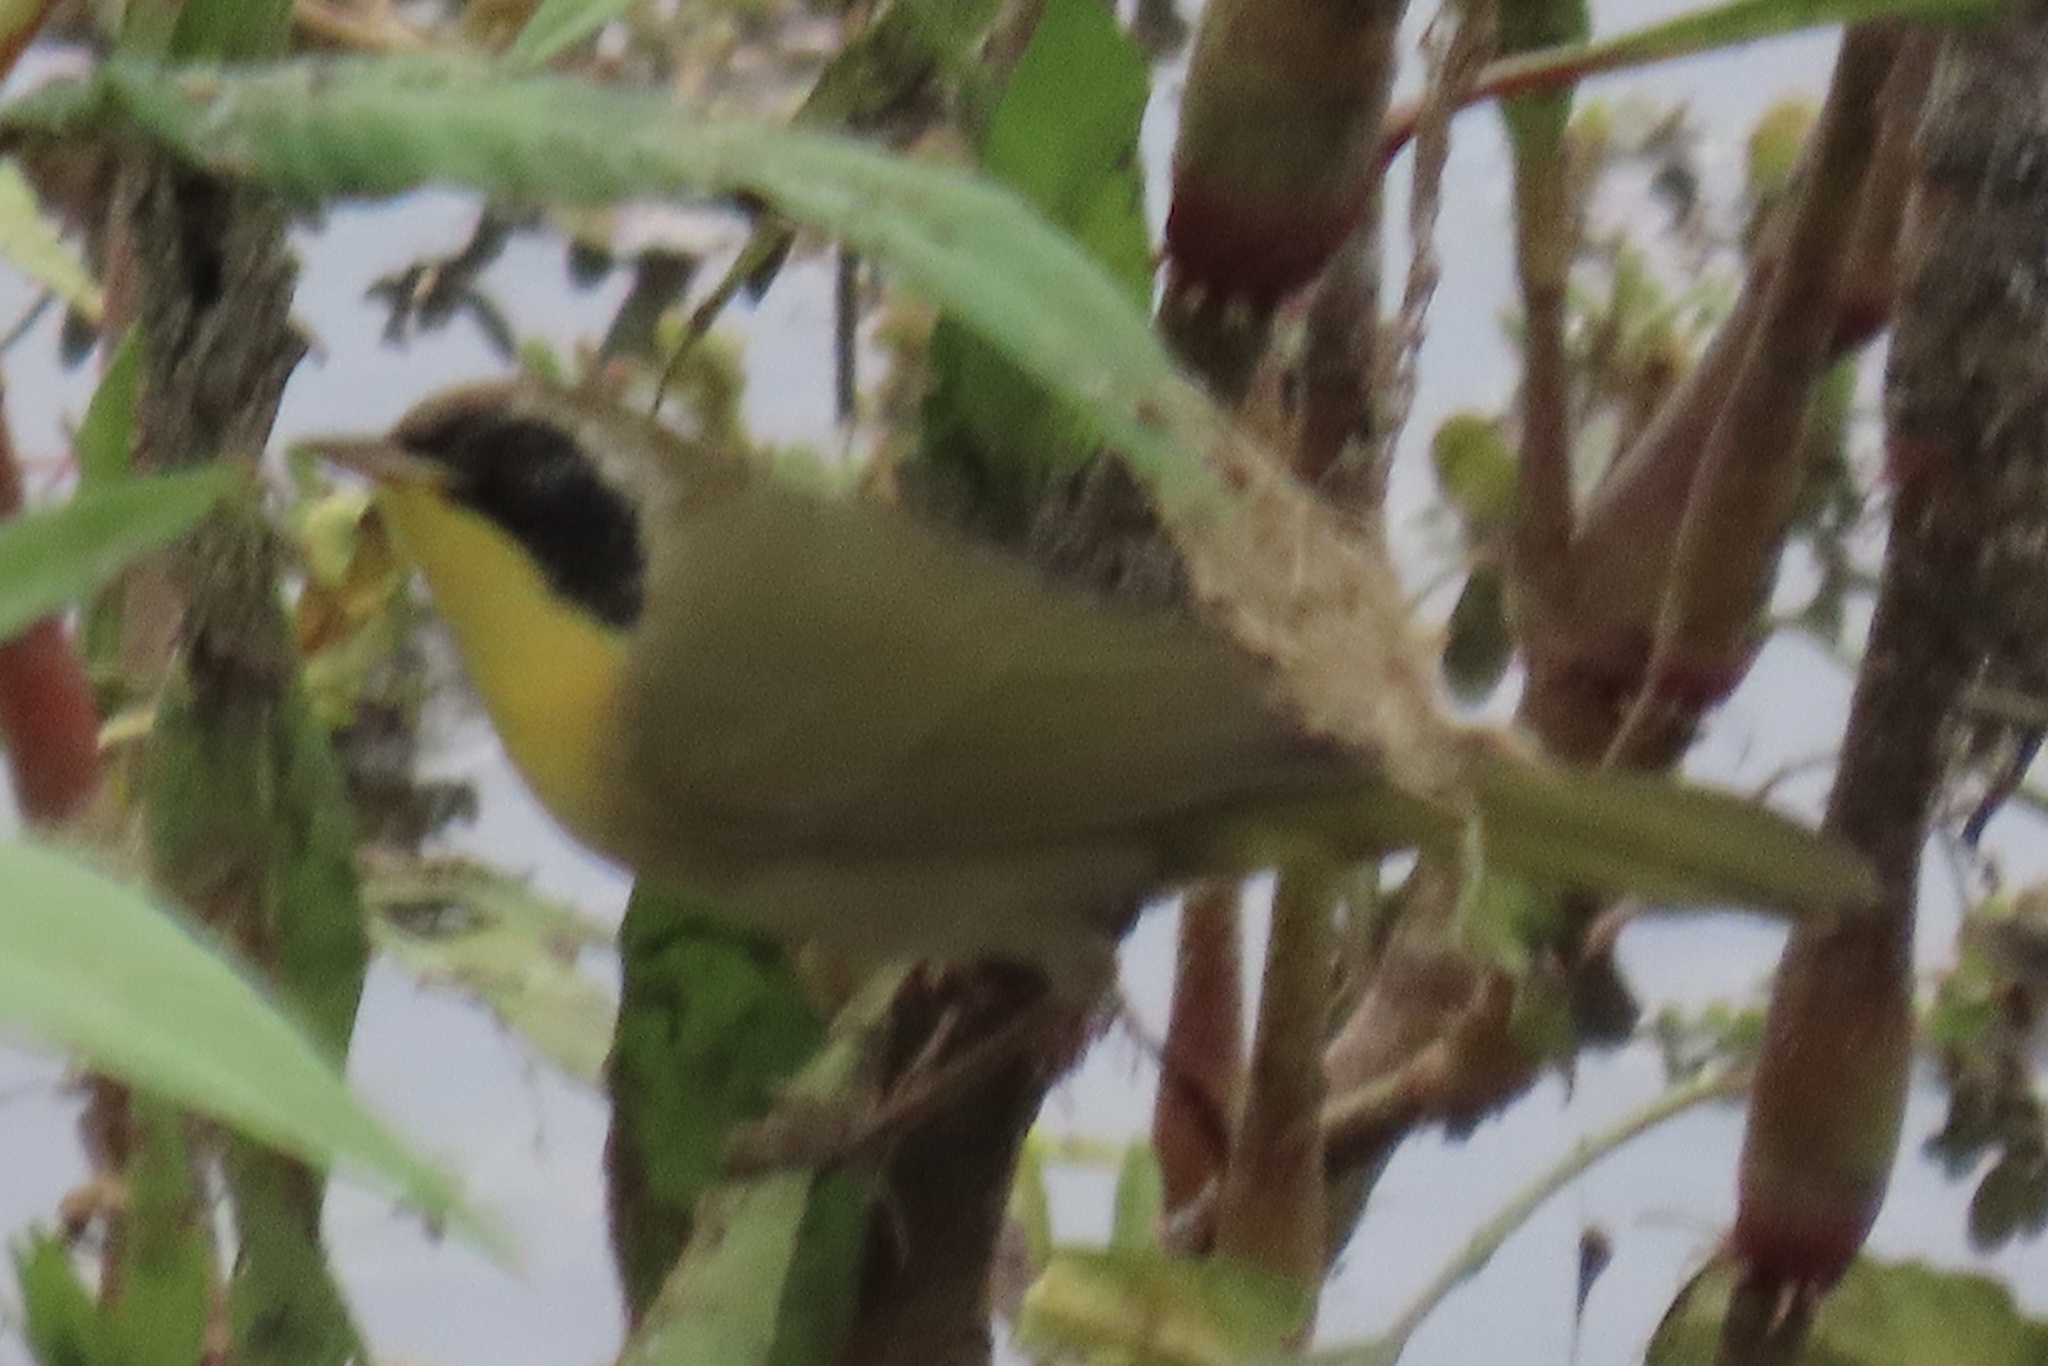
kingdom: Animalia
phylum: Chordata
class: Aves
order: Passeriformes
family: Parulidae
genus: Geothlypis
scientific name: Geothlypis trichas
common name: Common yellowthroat
